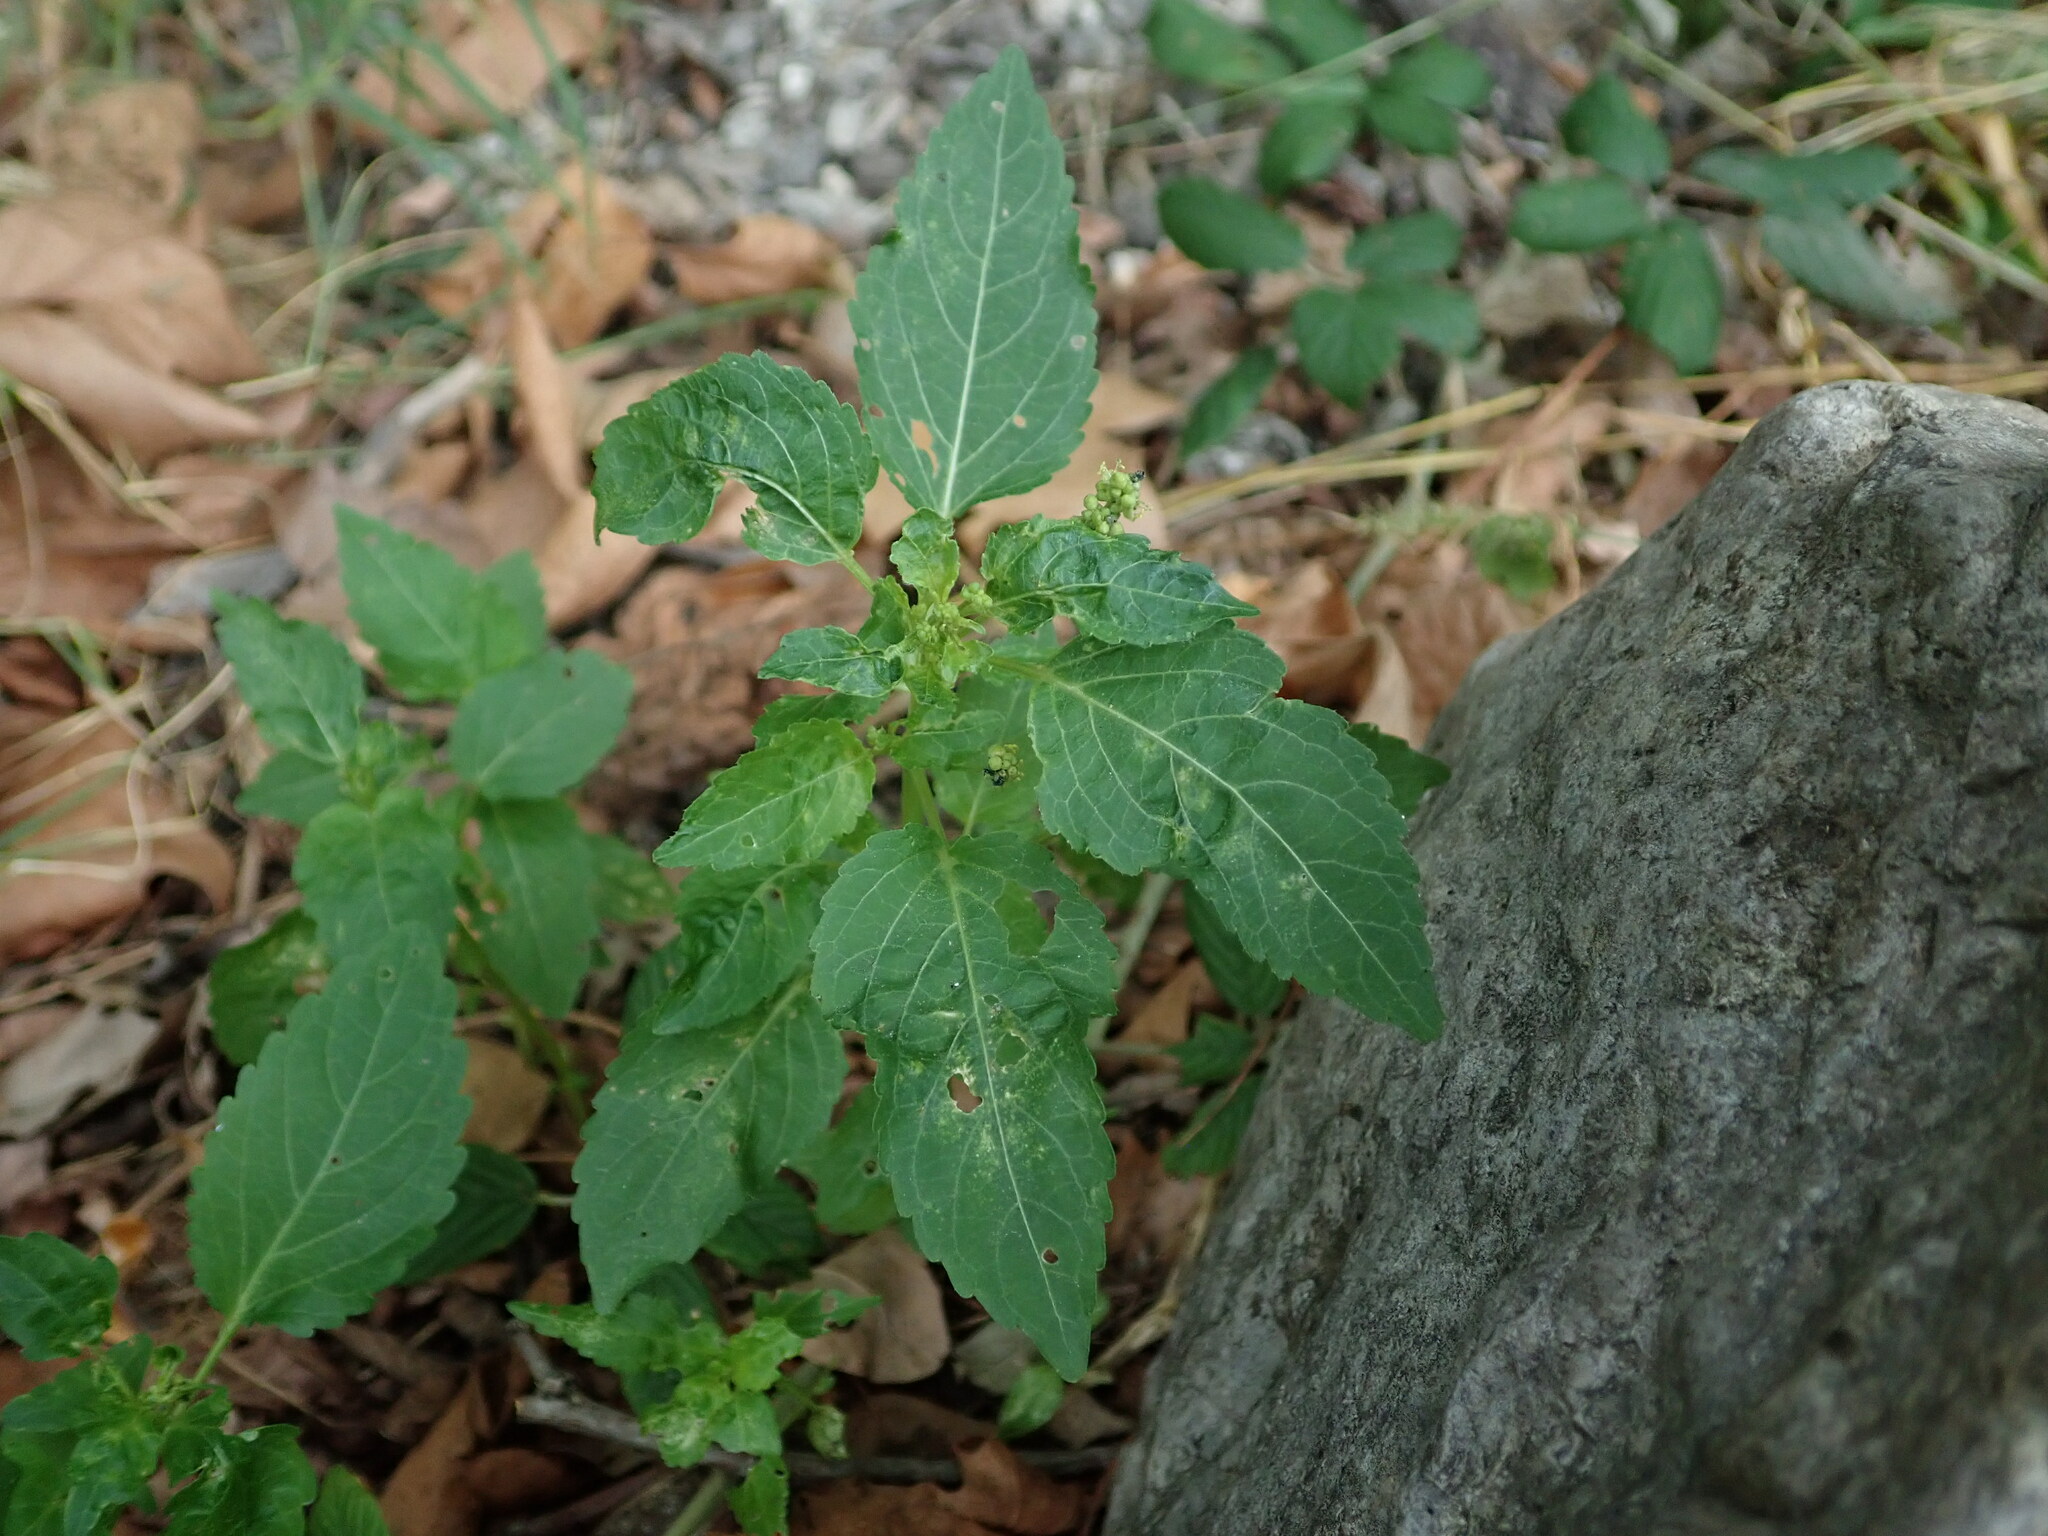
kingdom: Plantae
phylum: Tracheophyta
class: Magnoliopsida
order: Malpighiales
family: Euphorbiaceae
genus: Mercurialis
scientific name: Mercurialis annua
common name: Annual mercury
